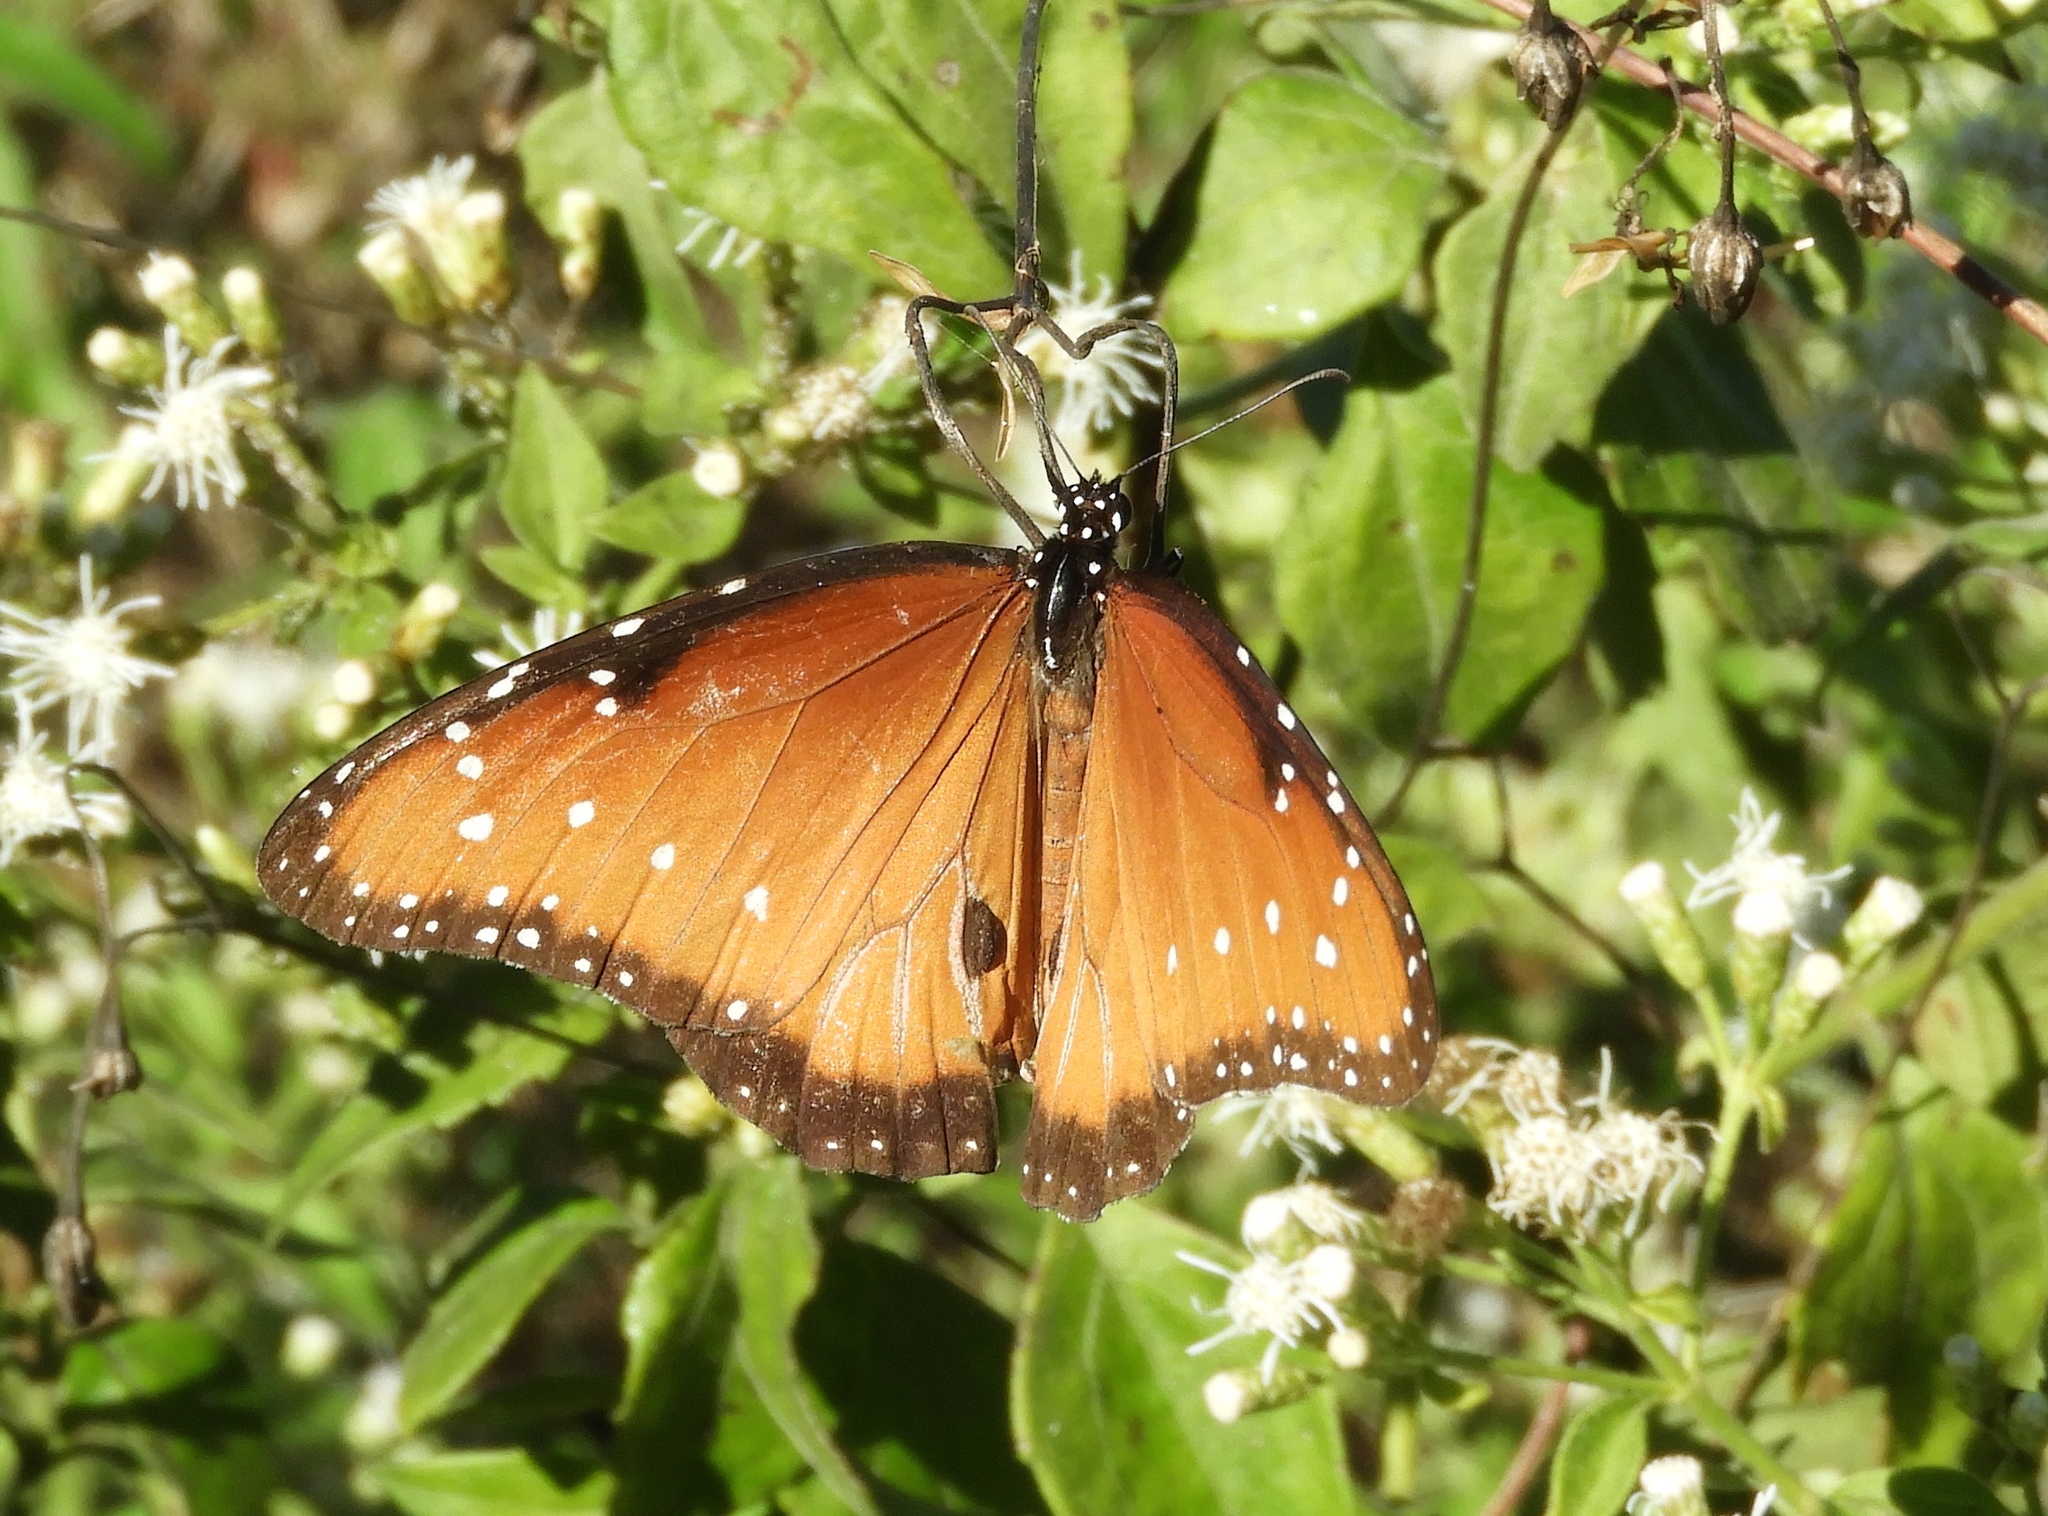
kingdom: Animalia
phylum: Arthropoda
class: Insecta
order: Lepidoptera
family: Nymphalidae
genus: Danaus
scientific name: Danaus gilippus
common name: Queen
